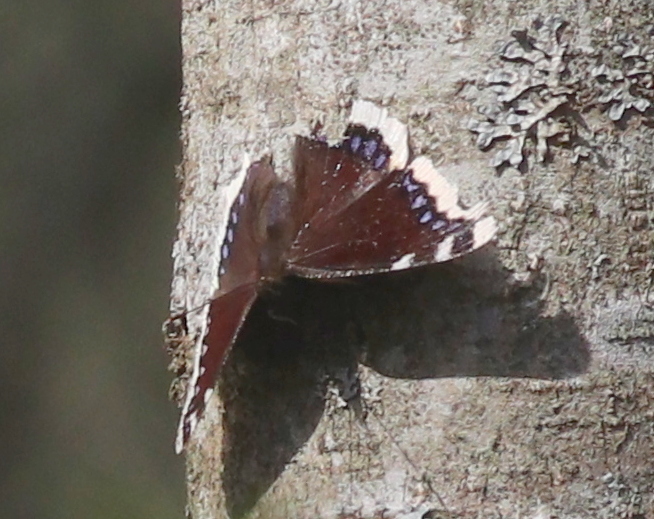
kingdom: Animalia
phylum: Arthropoda
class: Insecta
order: Lepidoptera
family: Nymphalidae
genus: Nymphalis
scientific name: Nymphalis antiopa
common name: Camberwell beauty
